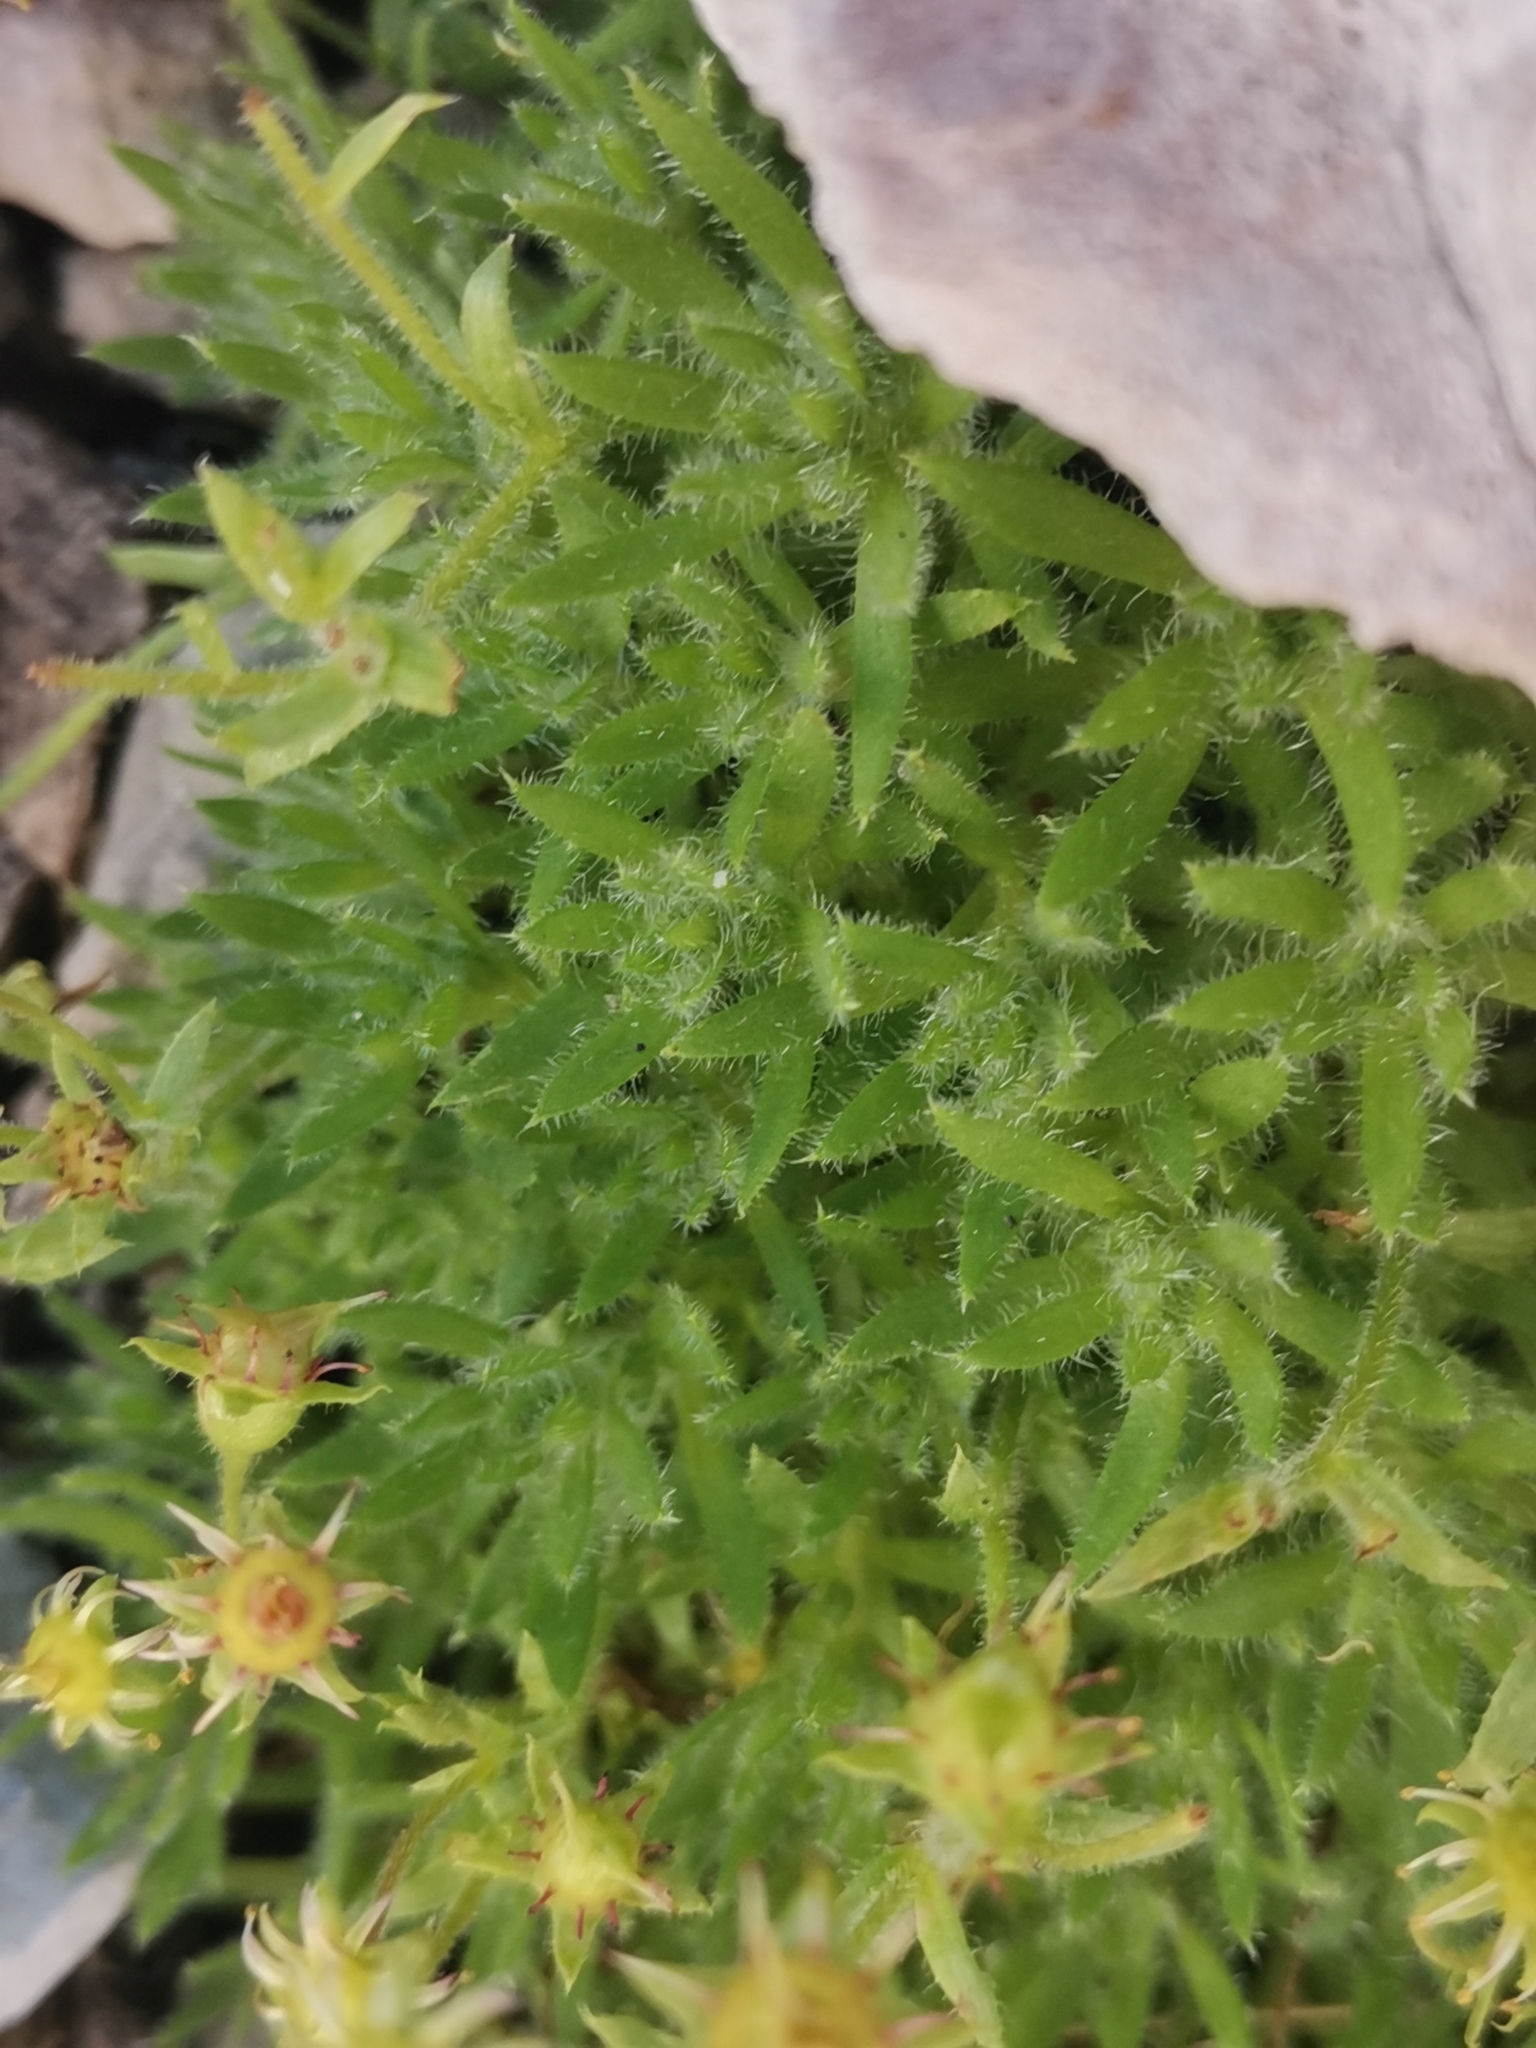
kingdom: Plantae
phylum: Tracheophyta
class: Magnoliopsida
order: Saxifragales
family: Saxifragaceae
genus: Saxifraga
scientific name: Saxifraga hohenwartii
